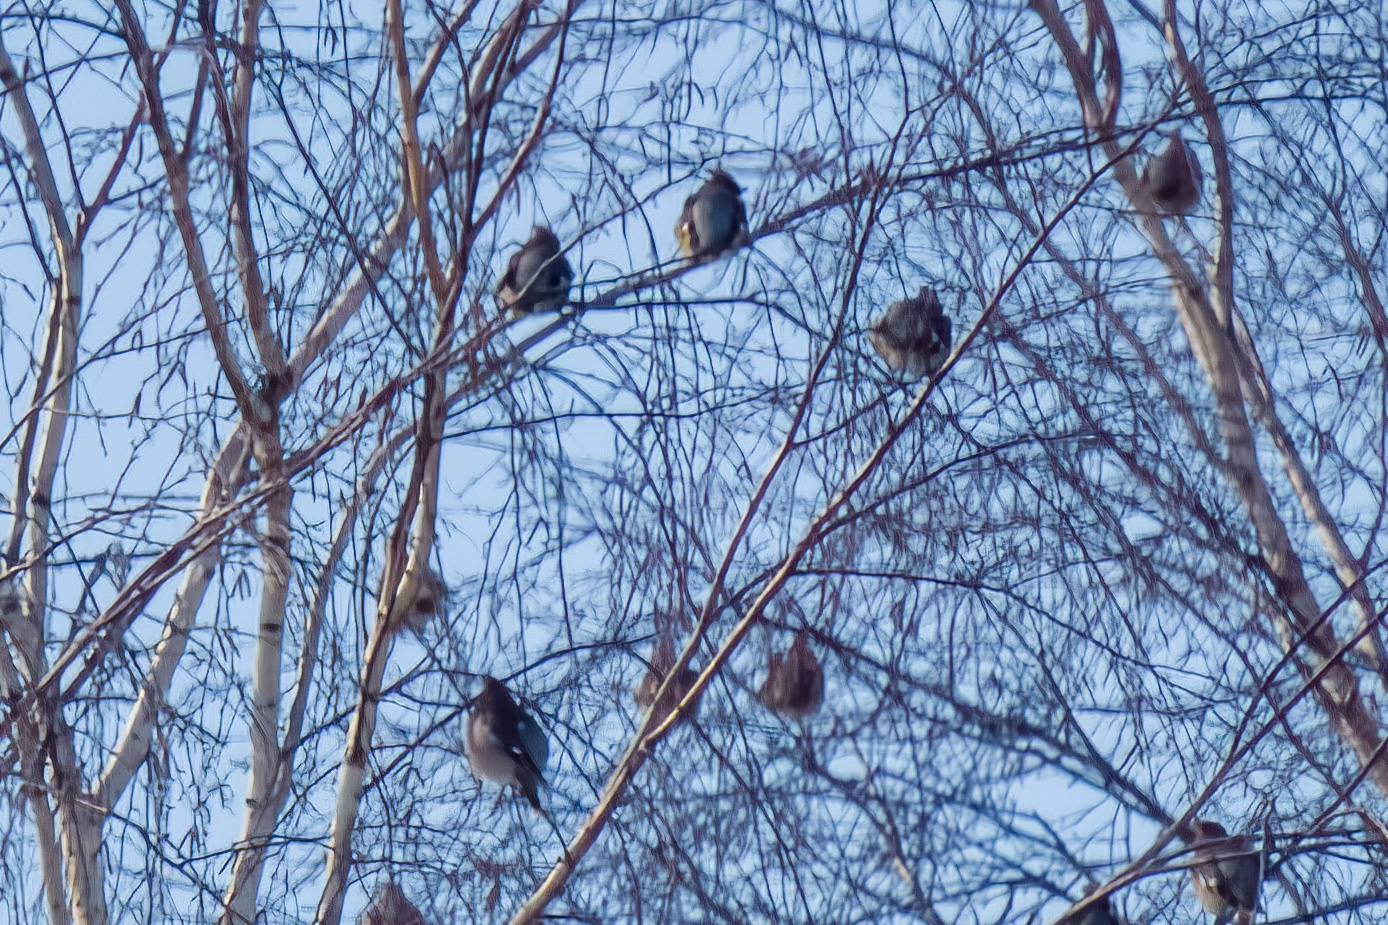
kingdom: Animalia
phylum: Chordata
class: Aves
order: Passeriformes
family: Bombycillidae
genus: Bombycilla
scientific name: Bombycilla garrulus
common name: Bohemian waxwing
